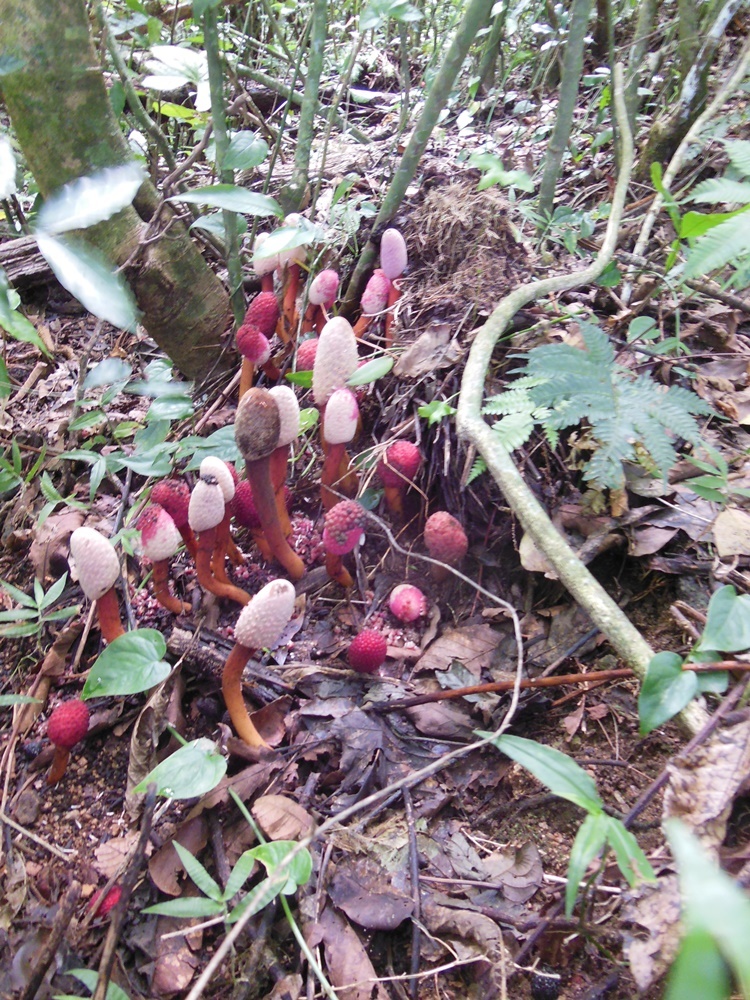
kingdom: Plantae
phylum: Tracheophyta
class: Magnoliopsida
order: Santalales
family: Balanophoraceae
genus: Helosis
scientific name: Helosis cayennensis
